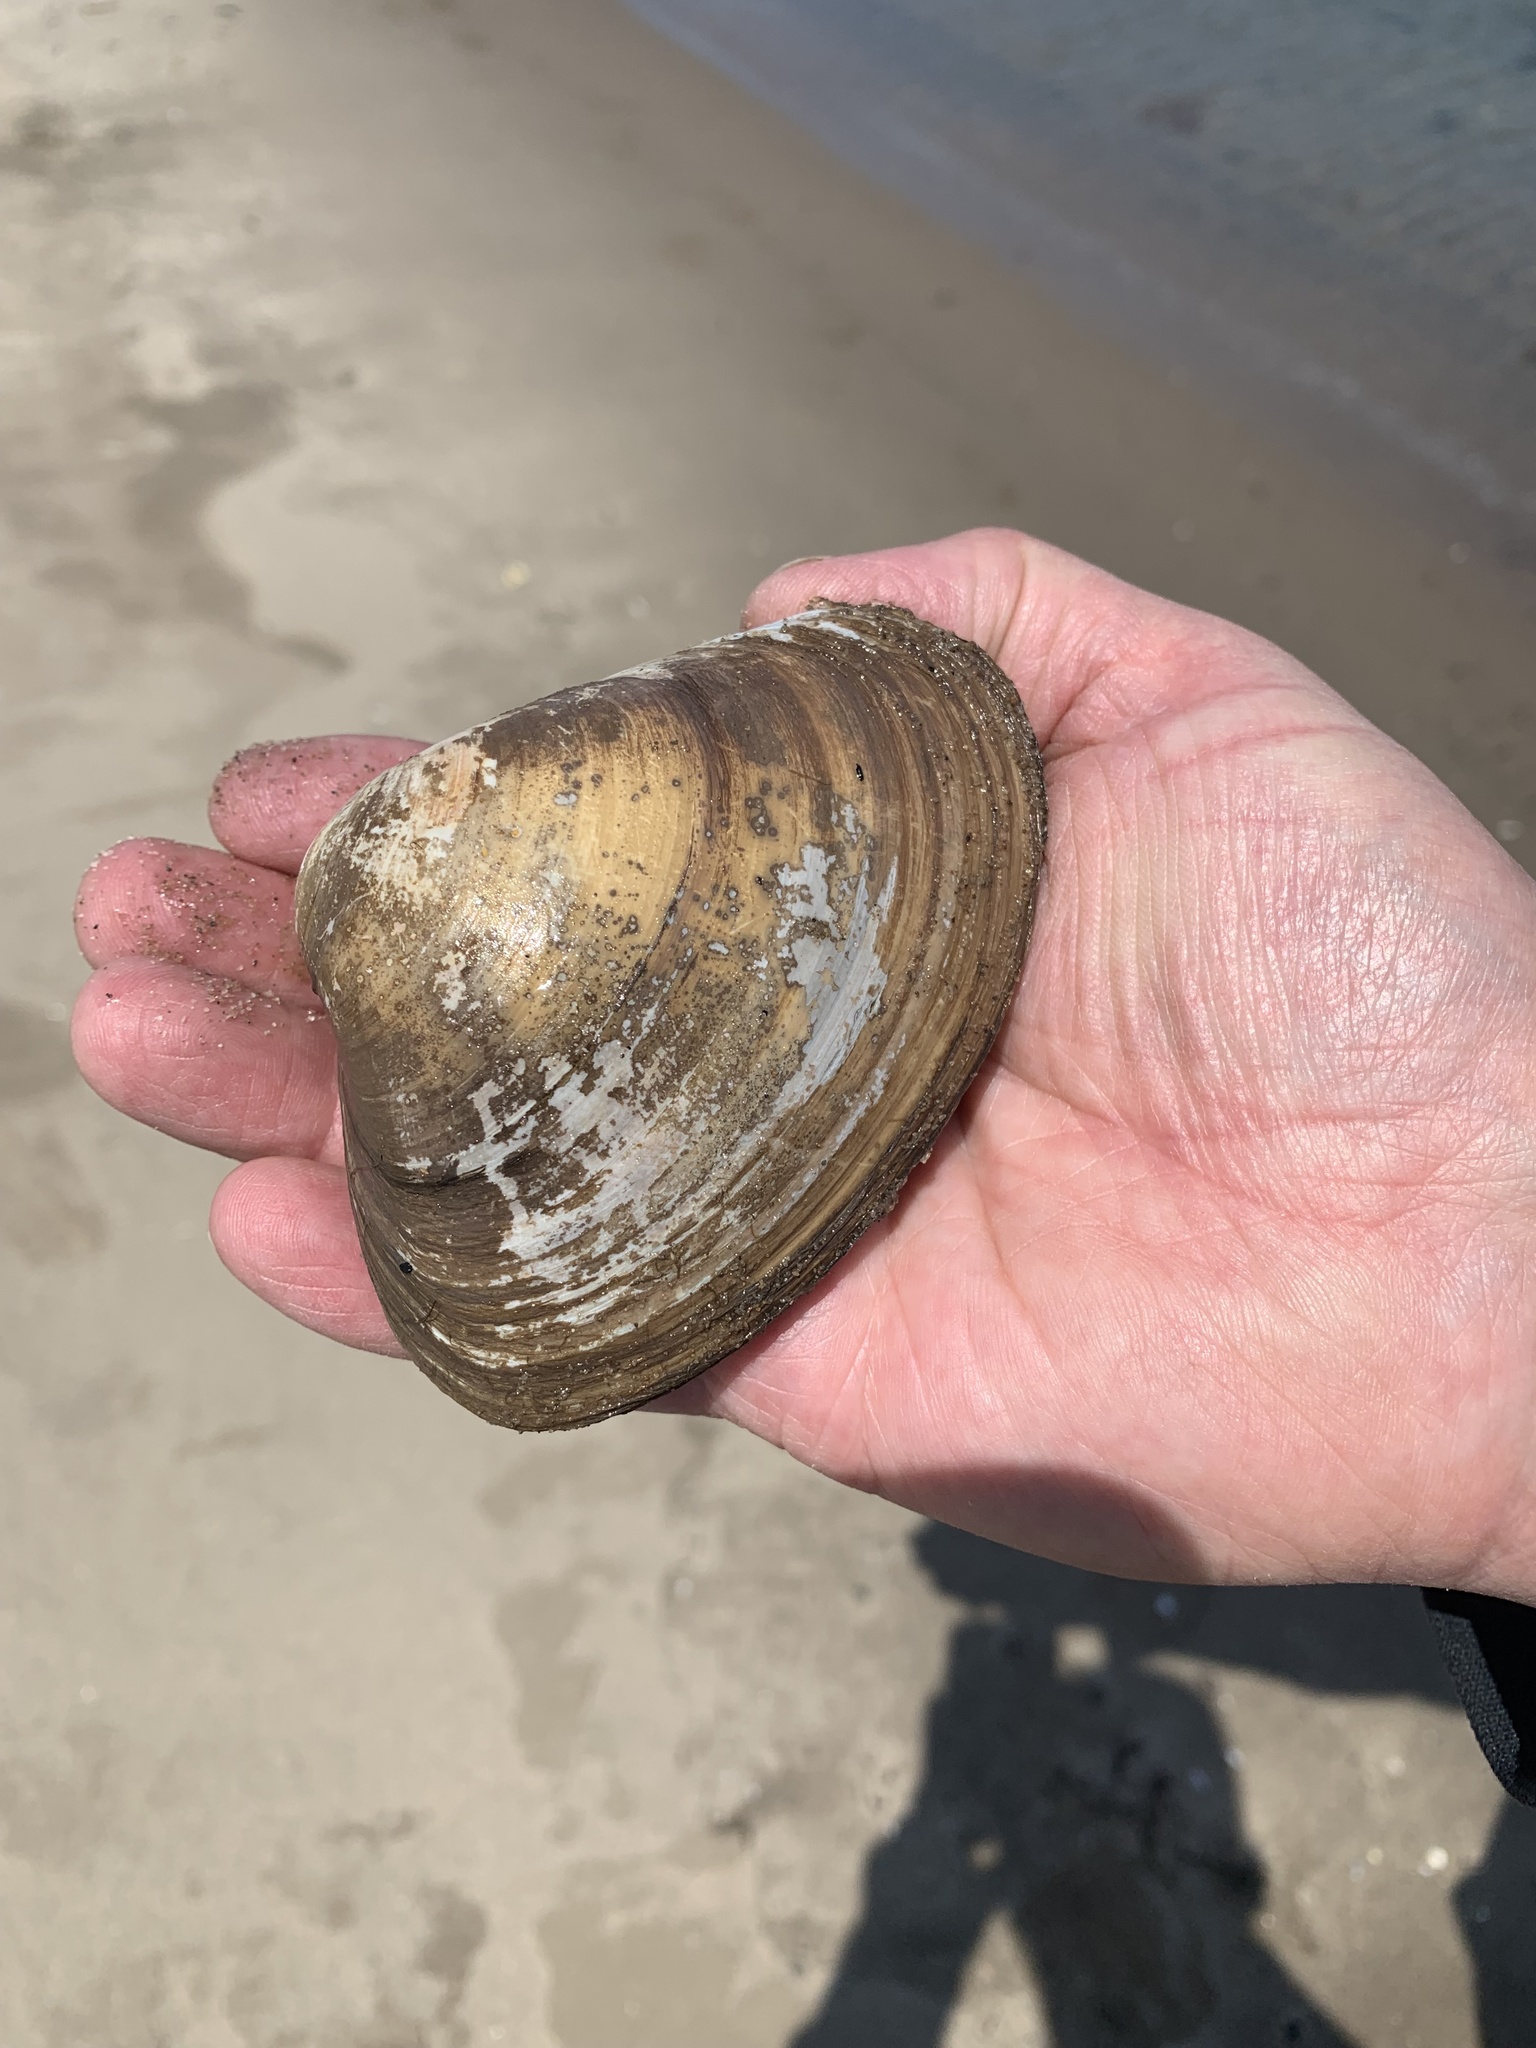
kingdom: Animalia
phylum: Mollusca
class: Bivalvia
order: Venerida
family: Mactridae
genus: Spisula
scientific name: Spisula solidissima
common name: Atlantic surf clam
